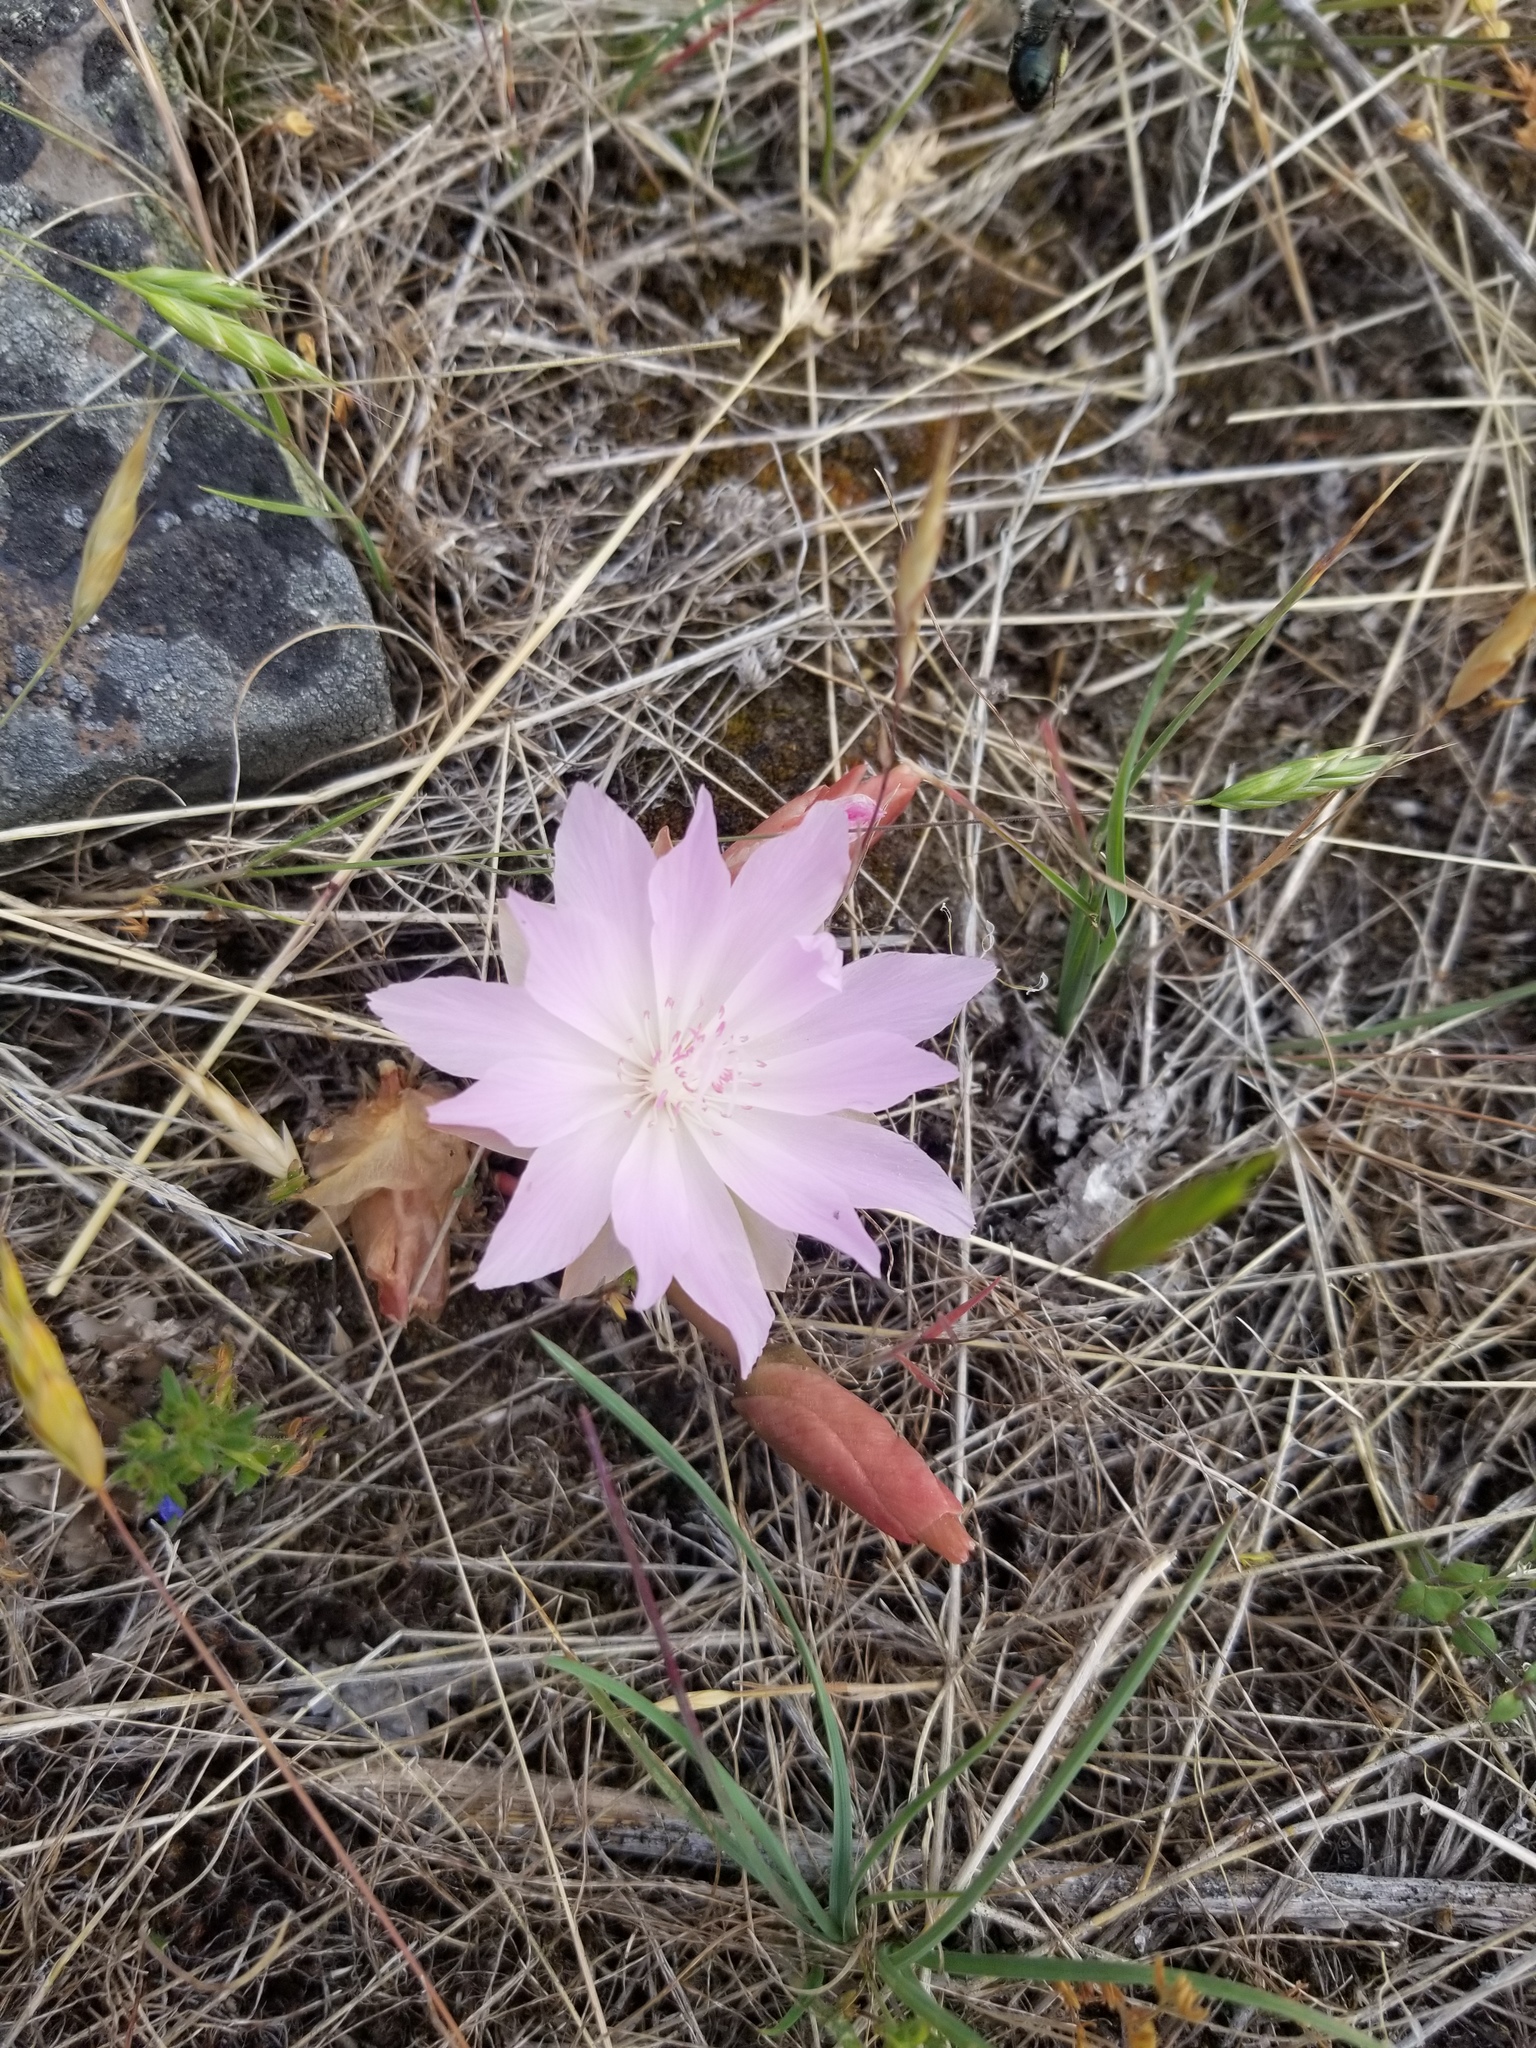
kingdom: Plantae
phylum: Tracheophyta
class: Magnoliopsida
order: Caryophyllales
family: Montiaceae
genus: Lewisia
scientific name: Lewisia rediviva
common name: Bitter-root
